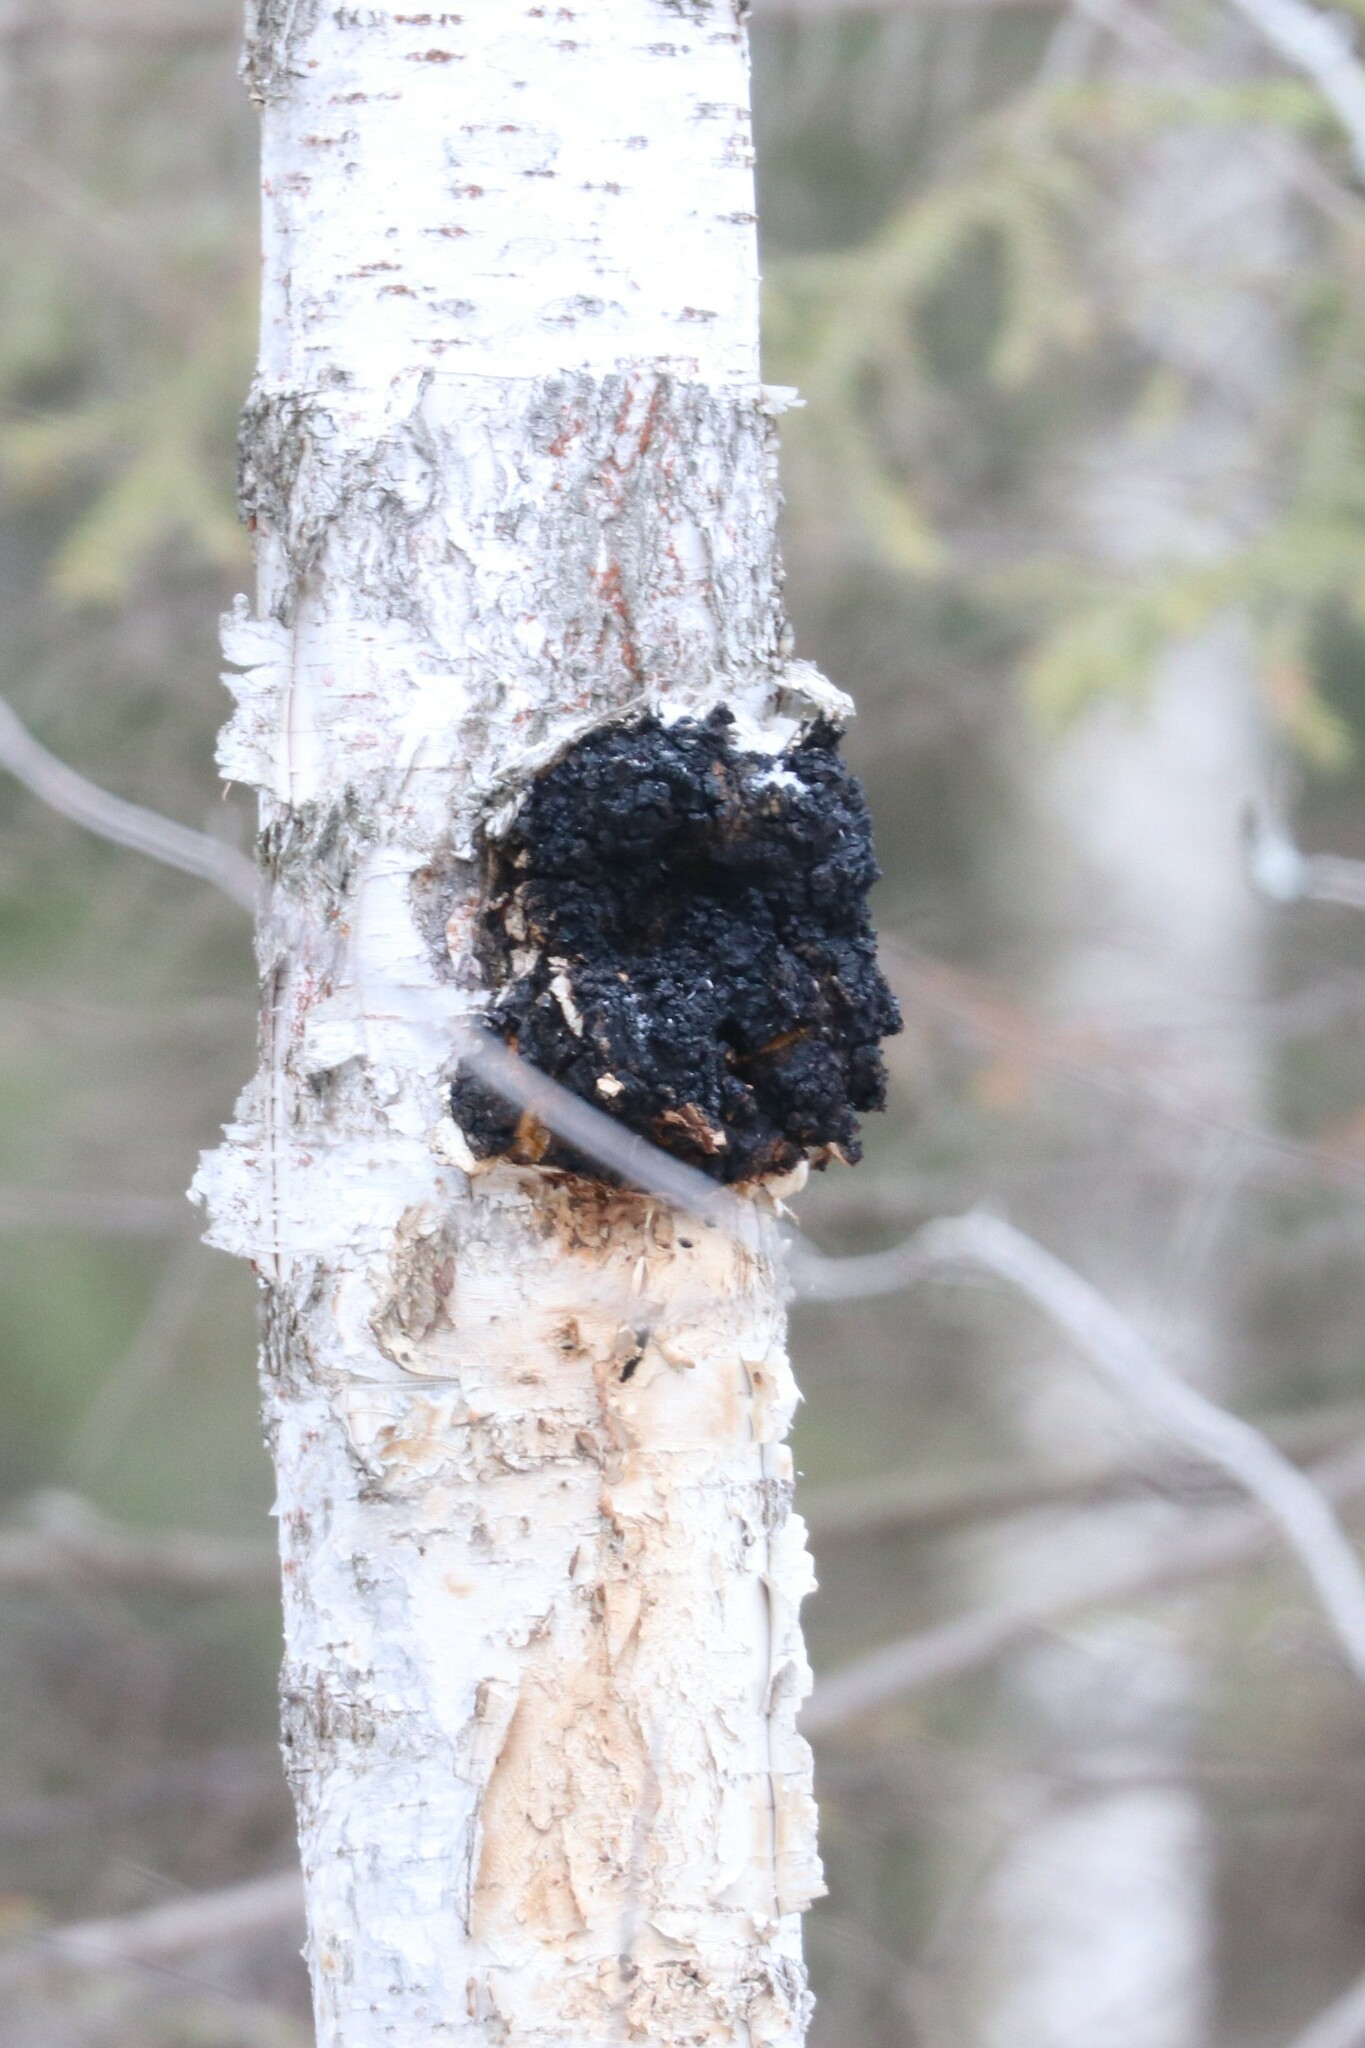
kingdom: Fungi
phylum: Basidiomycota
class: Agaricomycetes
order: Hymenochaetales
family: Hymenochaetaceae
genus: Inonotus
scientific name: Inonotus obliquus
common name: Chaga
